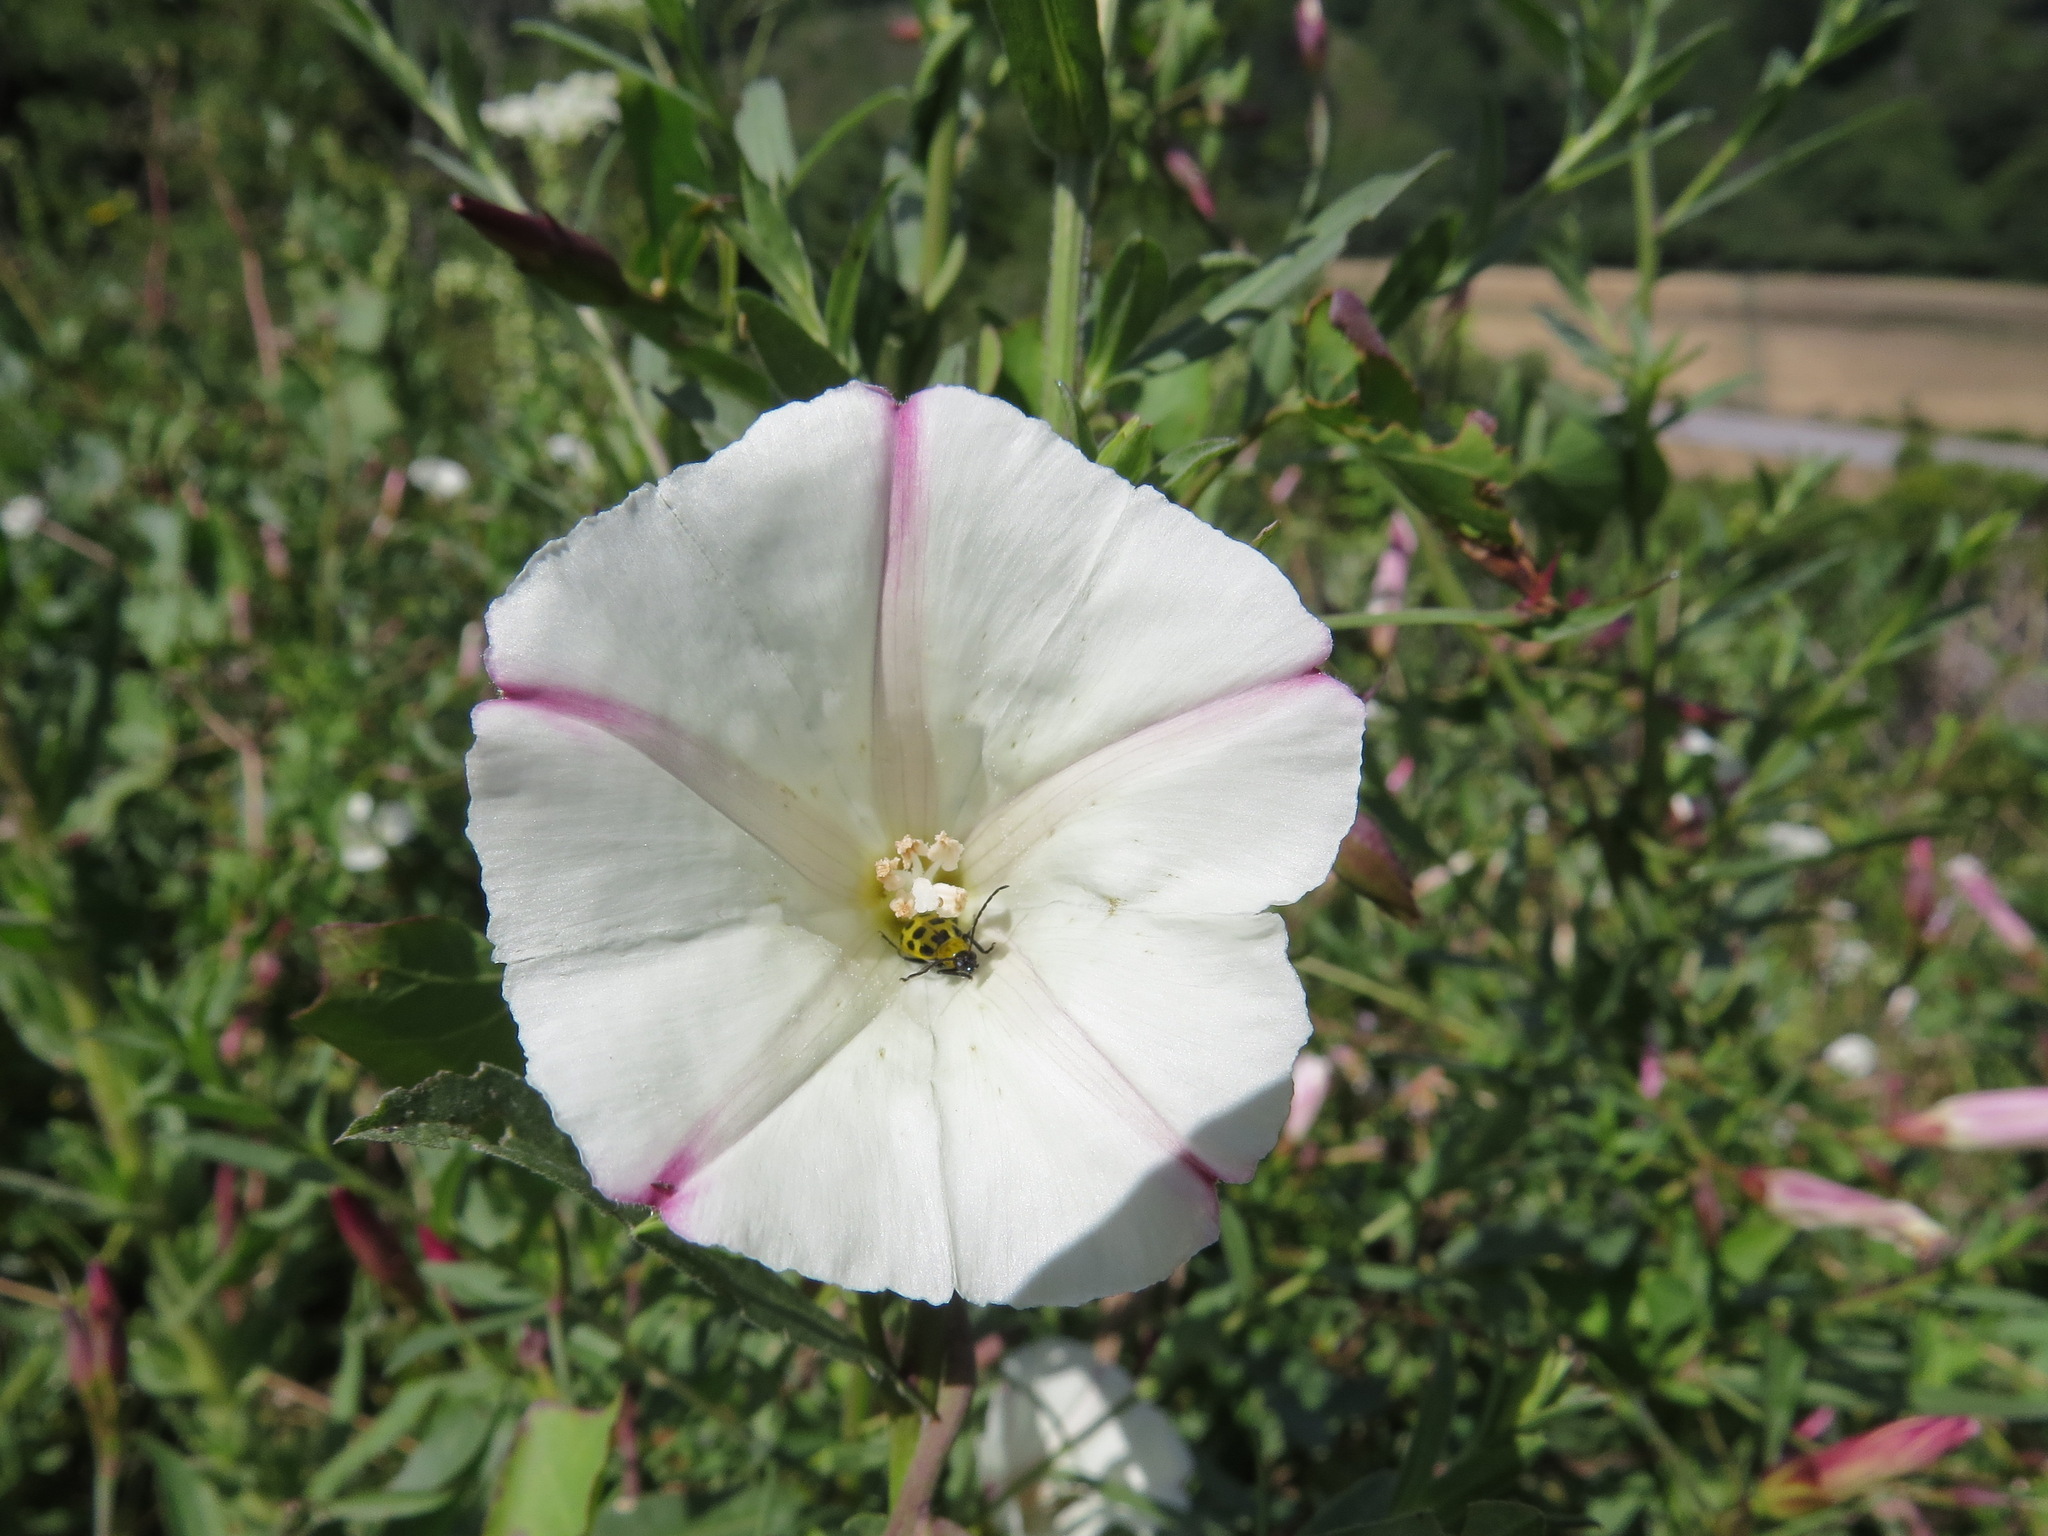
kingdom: Animalia
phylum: Arthropoda
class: Insecta
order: Coleoptera
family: Chrysomelidae
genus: Diabrotica
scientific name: Diabrotica undecimpunctata
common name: Spotted cucumber beetle
